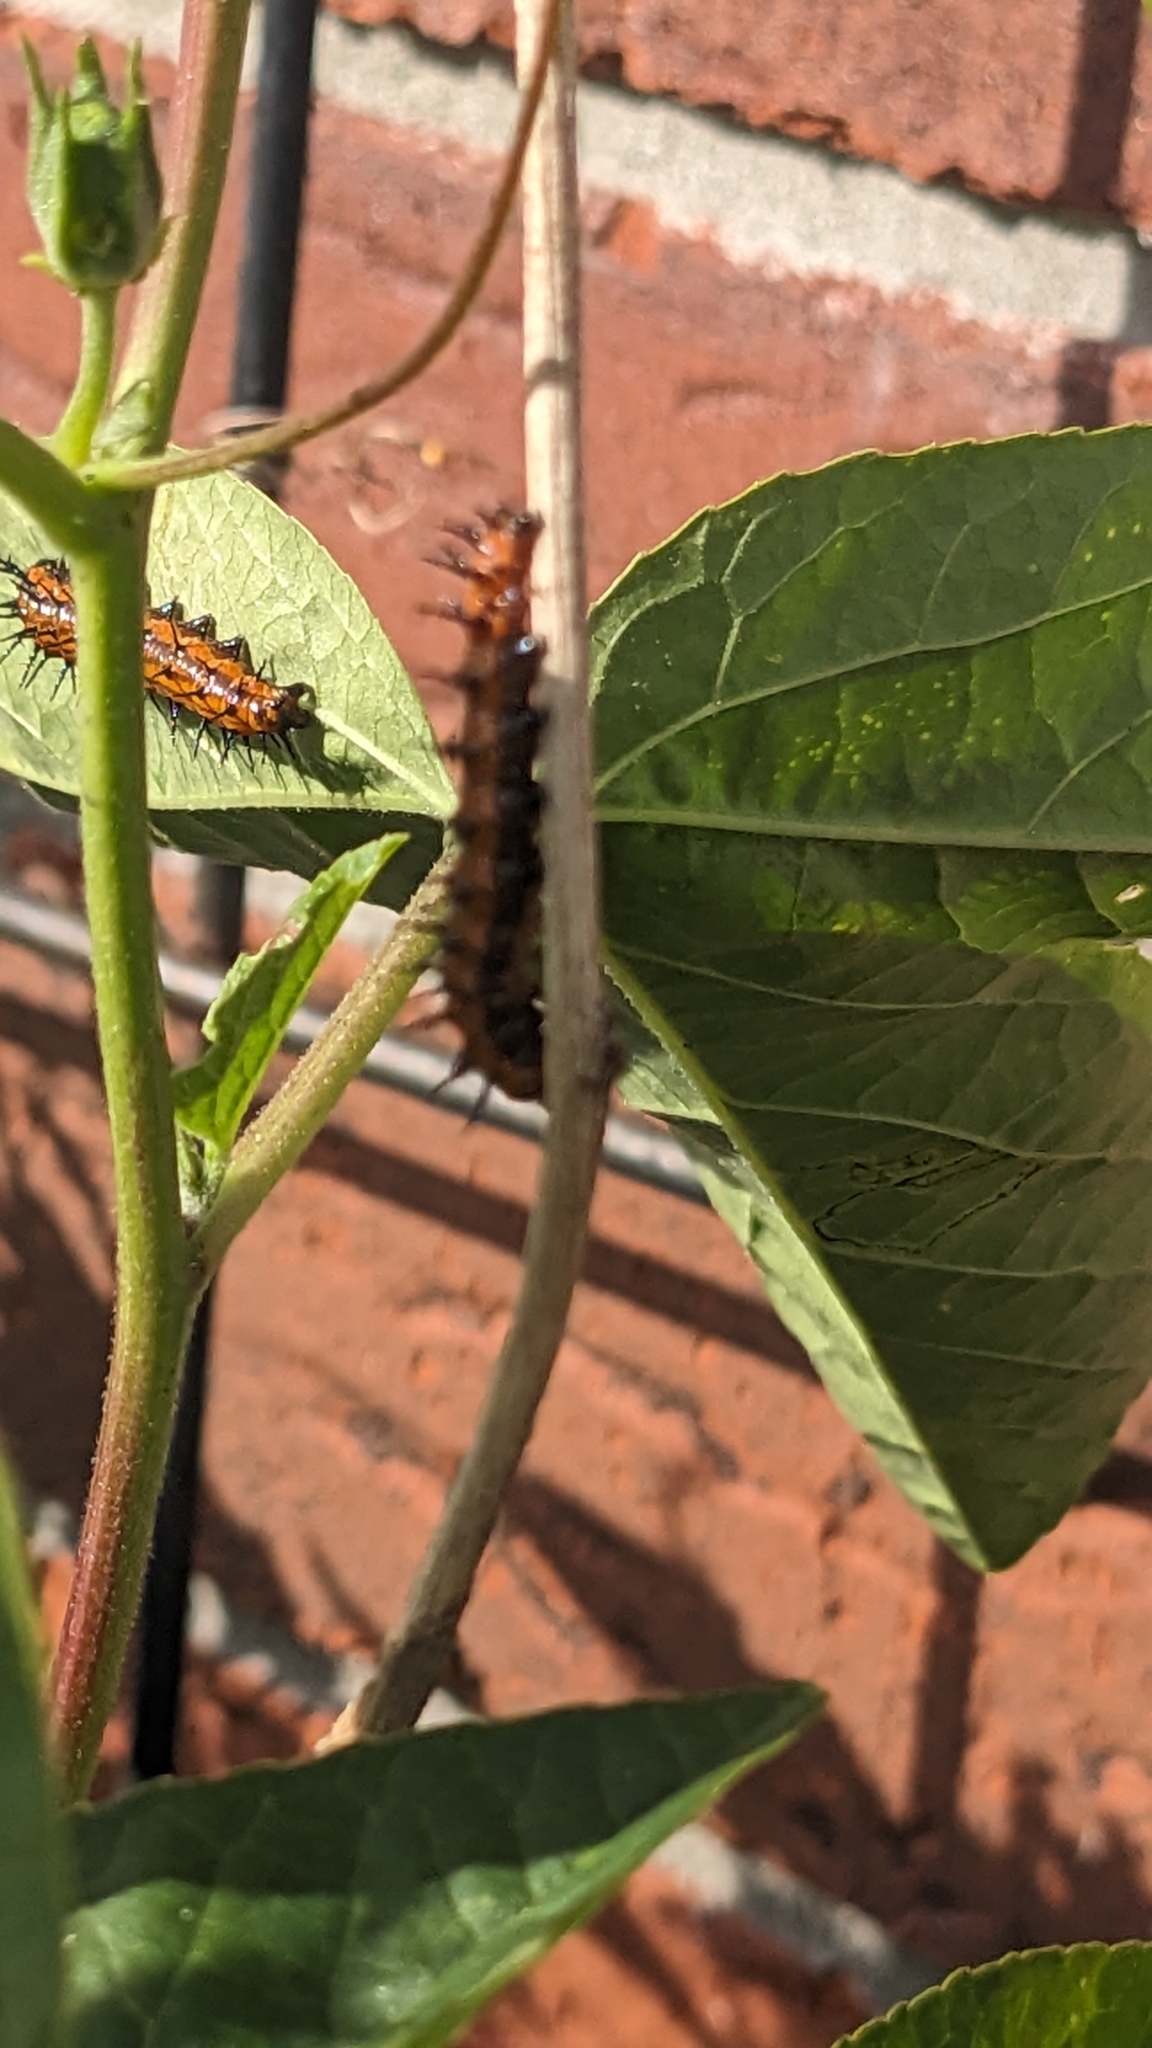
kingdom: Animalia
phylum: Arthropoda
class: Insecta
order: Lepidoptera
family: Nymphalidae
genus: Dione
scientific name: Dione vanillae
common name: Gulf fritillary
